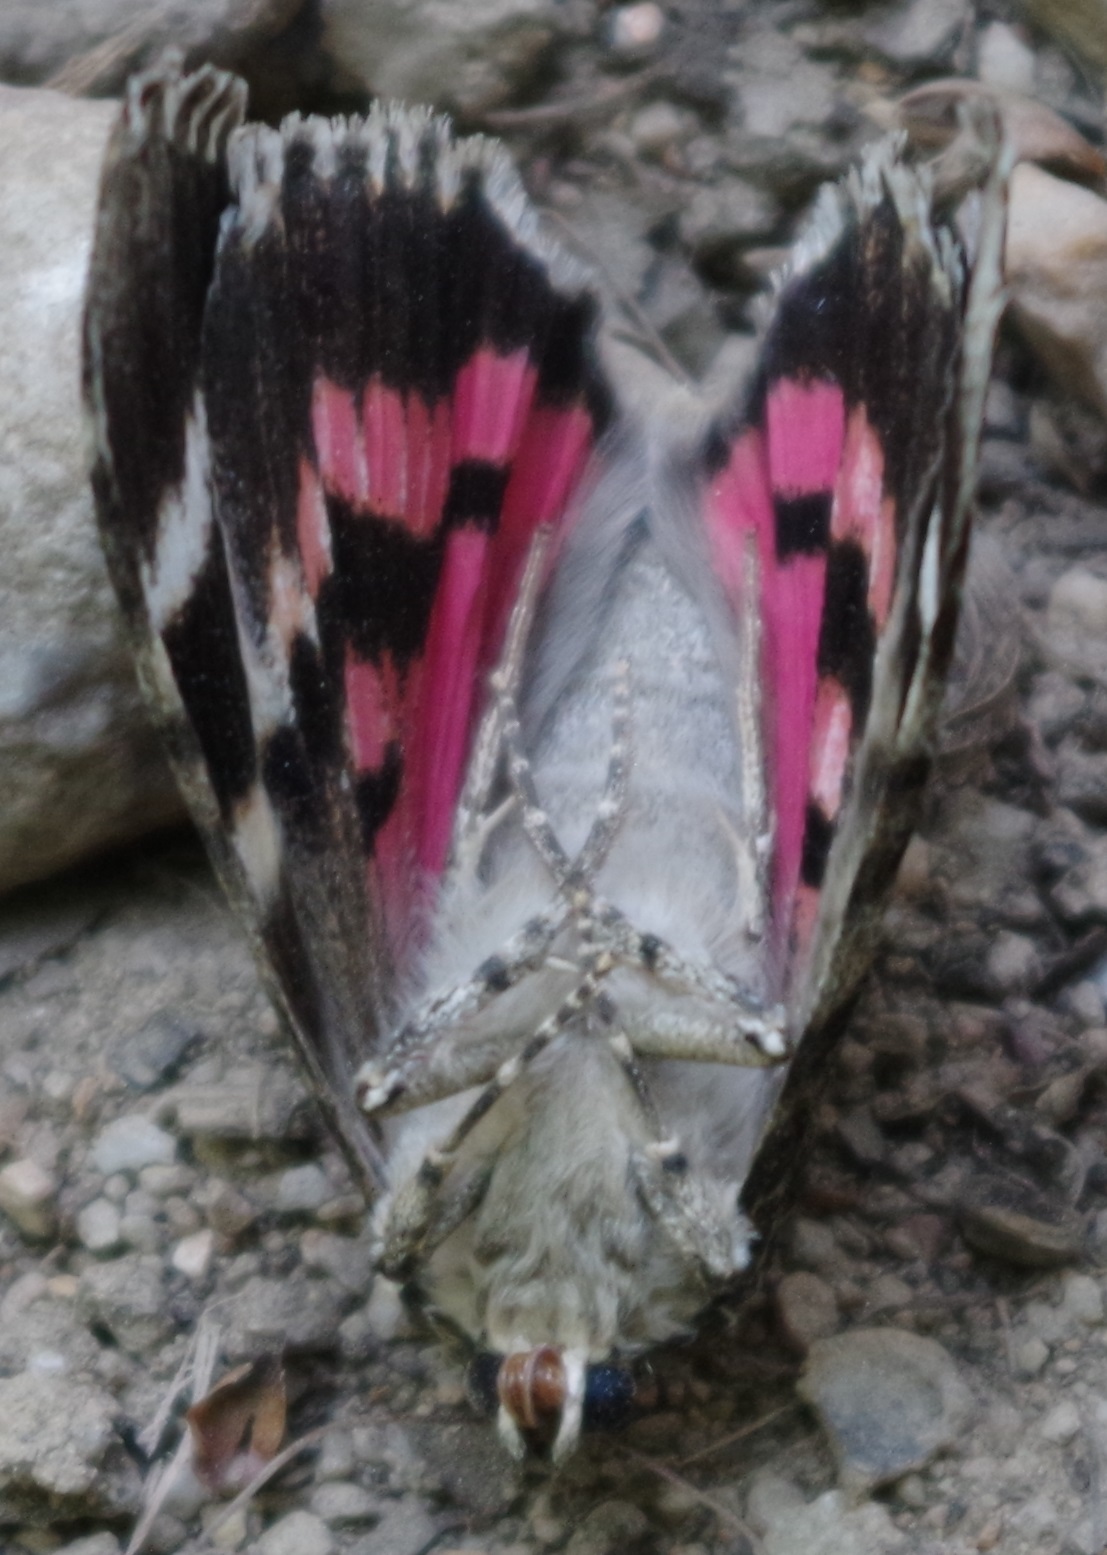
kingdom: Animalia
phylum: Arthropoda
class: Insecta
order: Lepidoptera
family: Erebidae
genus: Catocala
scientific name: Catocala promissa
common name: Light crimson underwing
